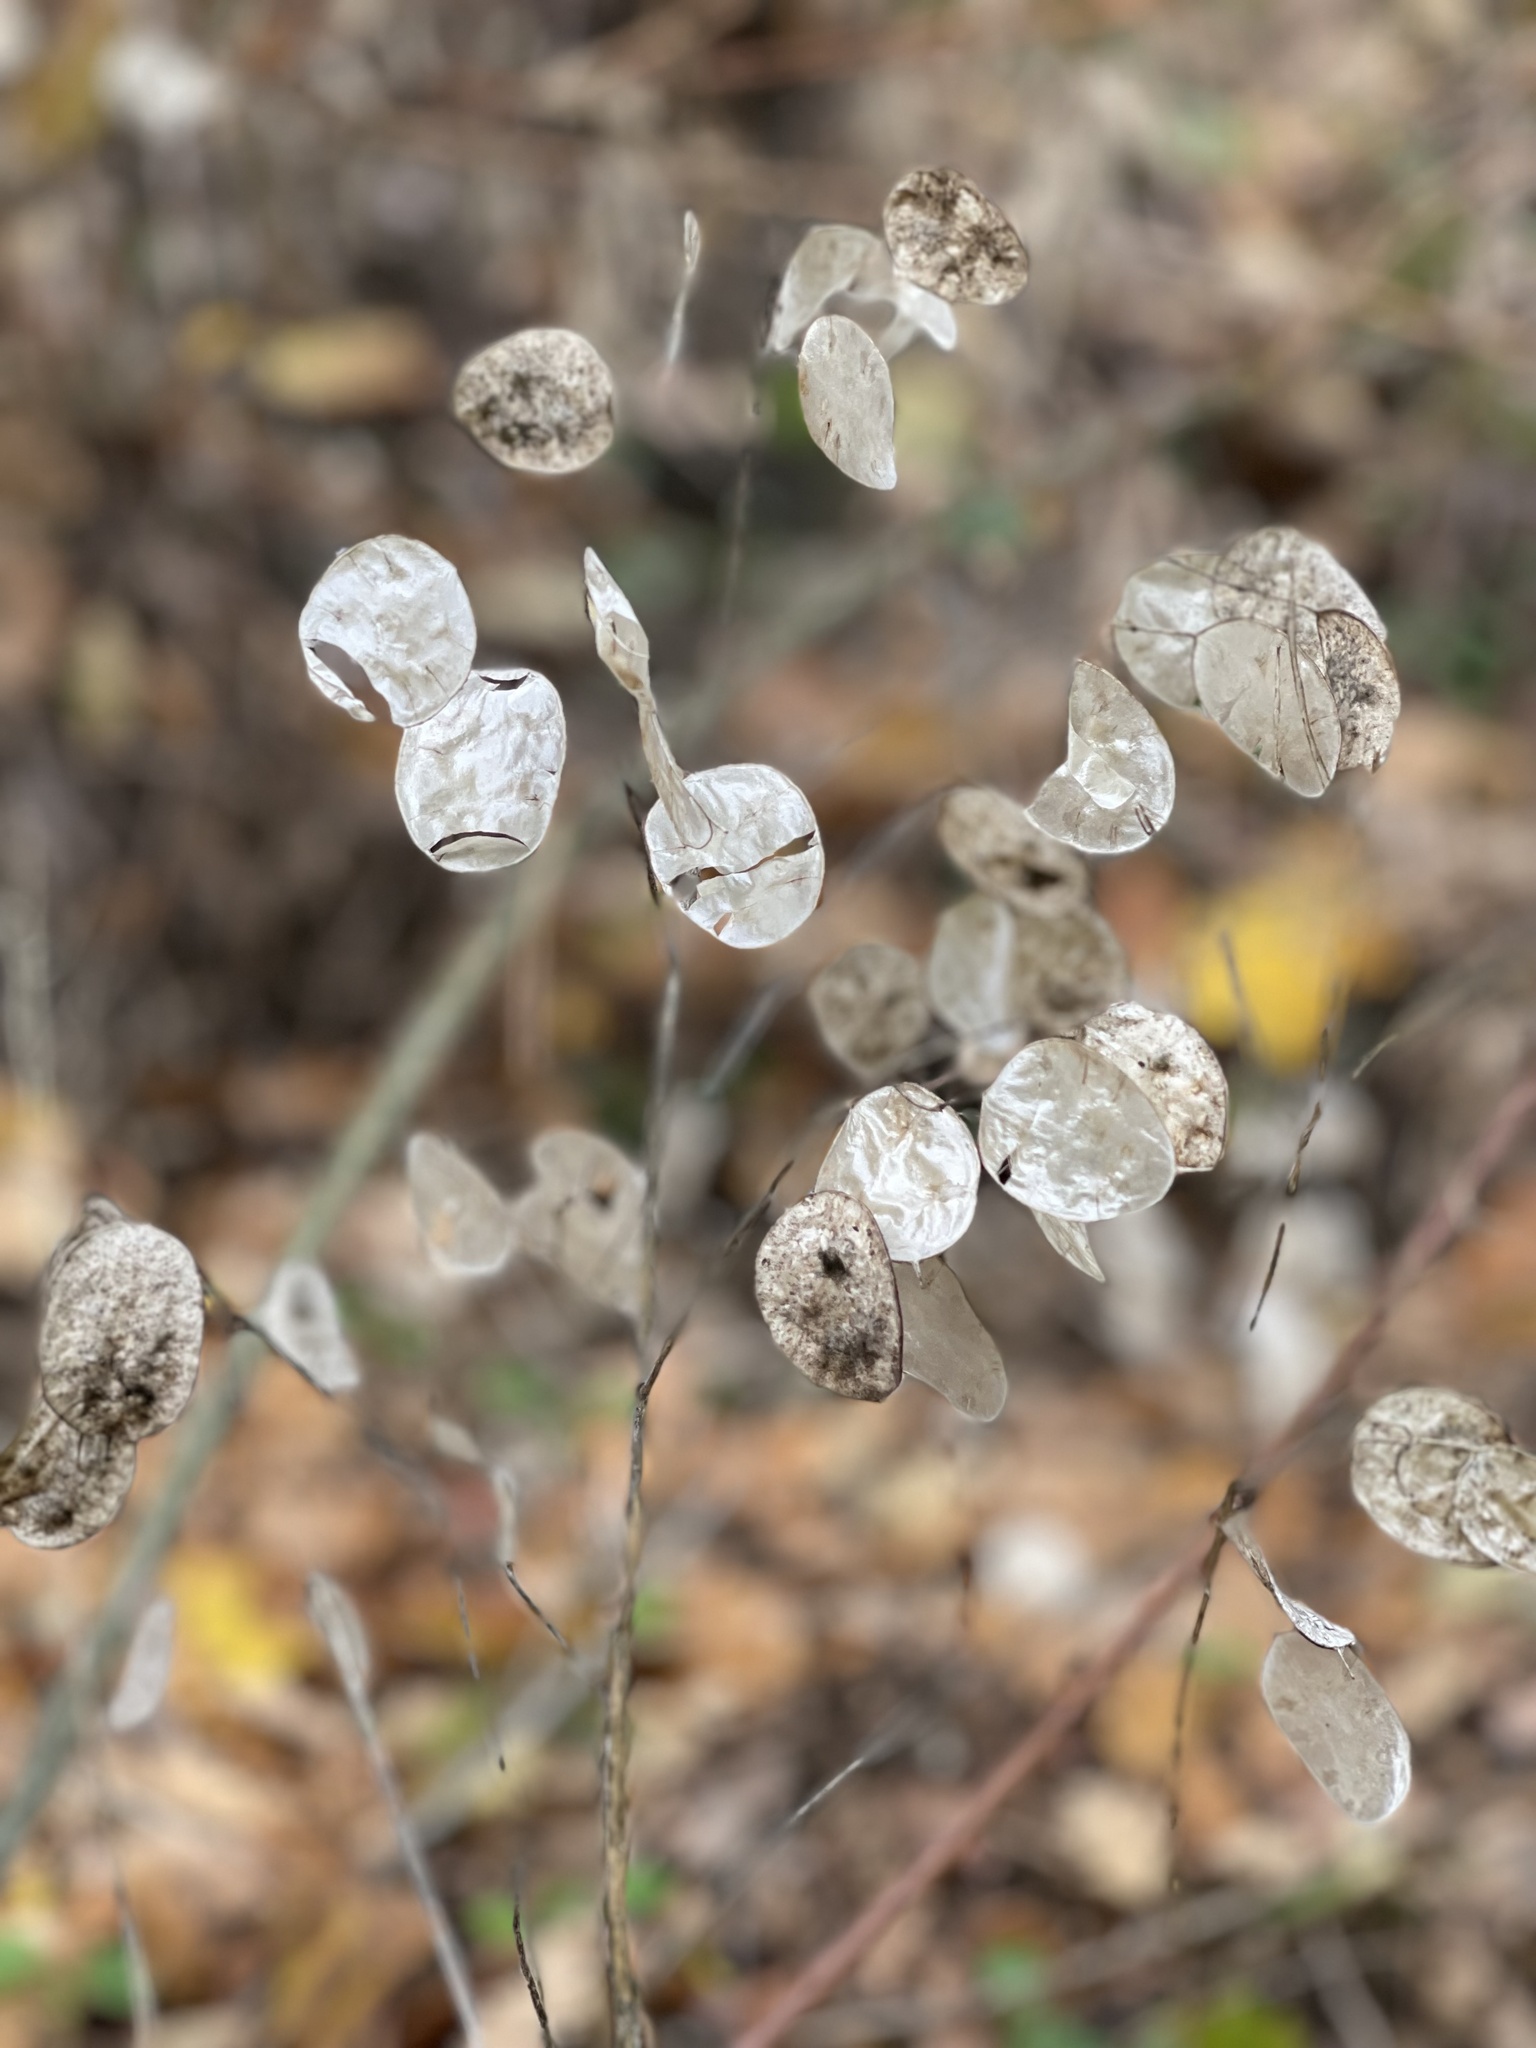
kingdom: Plantae
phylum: Tracheophyta
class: Magnoliopsida
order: Brassicales
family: Brassicaceae
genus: Lunaria
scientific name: Lunaria annua
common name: Honesty
